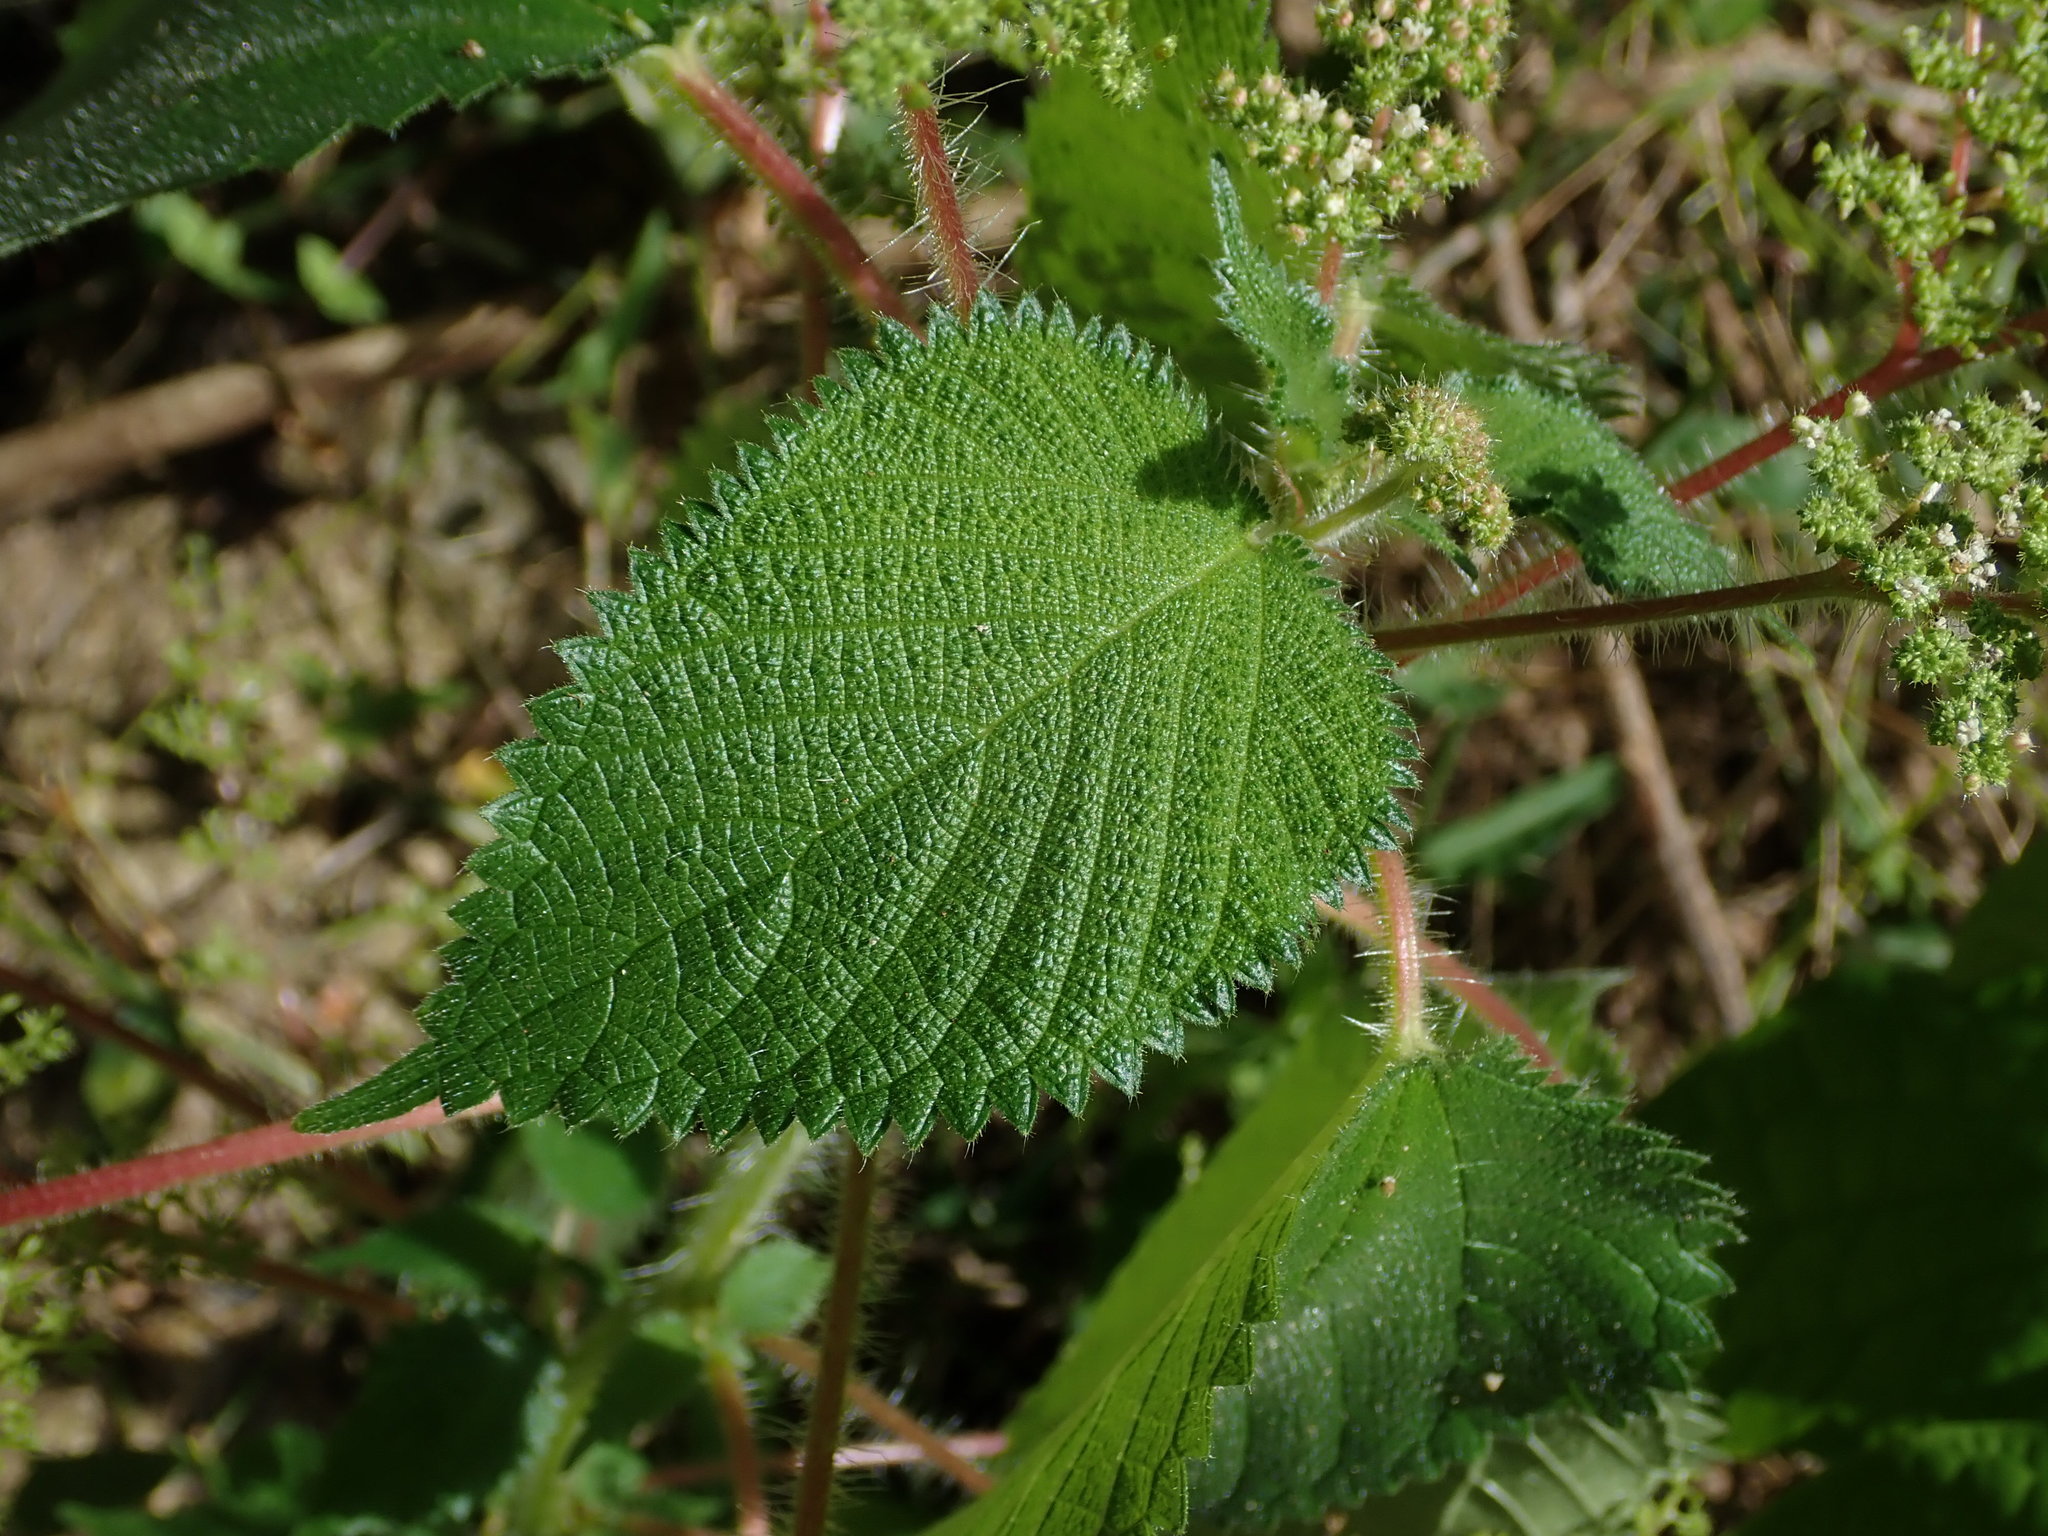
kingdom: Plantae
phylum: Tracheophyta
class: Magnoliopsida
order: Rosales
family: Urticaceae
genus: Laportea
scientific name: Laportea aestuans
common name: West indian woodnettle
